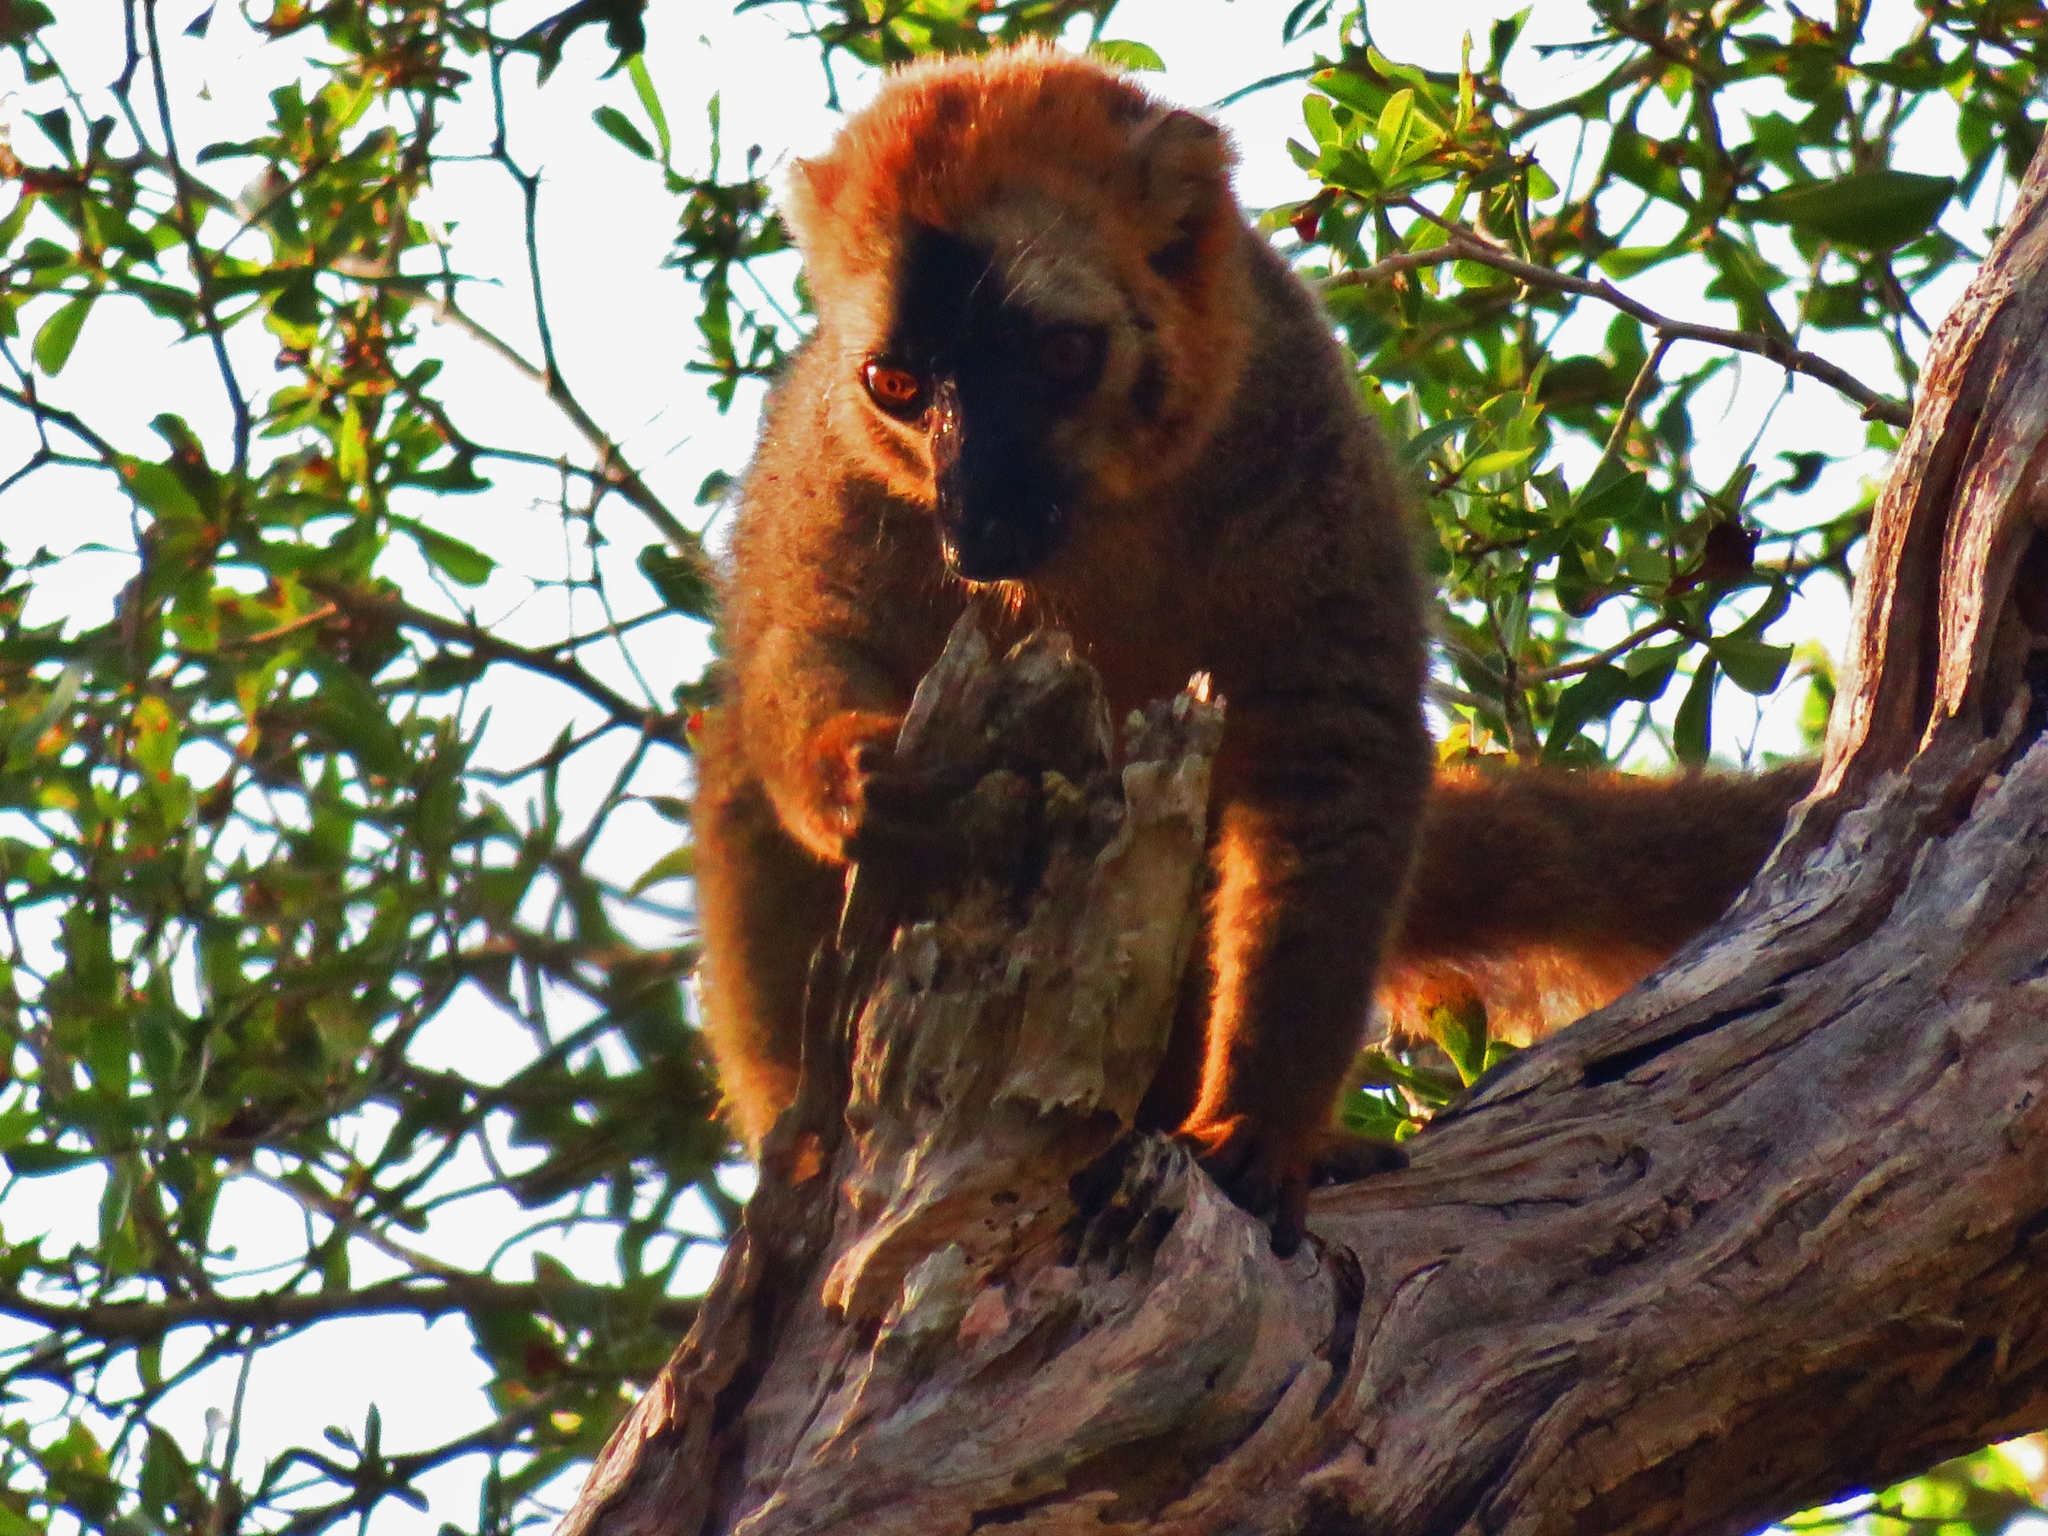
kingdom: Animalia
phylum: Chordata
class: Mammalia
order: Primates
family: Lepilemuridae
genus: Lepilemur
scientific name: Lepilemur ruficaudatus
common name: Red-tailed sportive lemur
